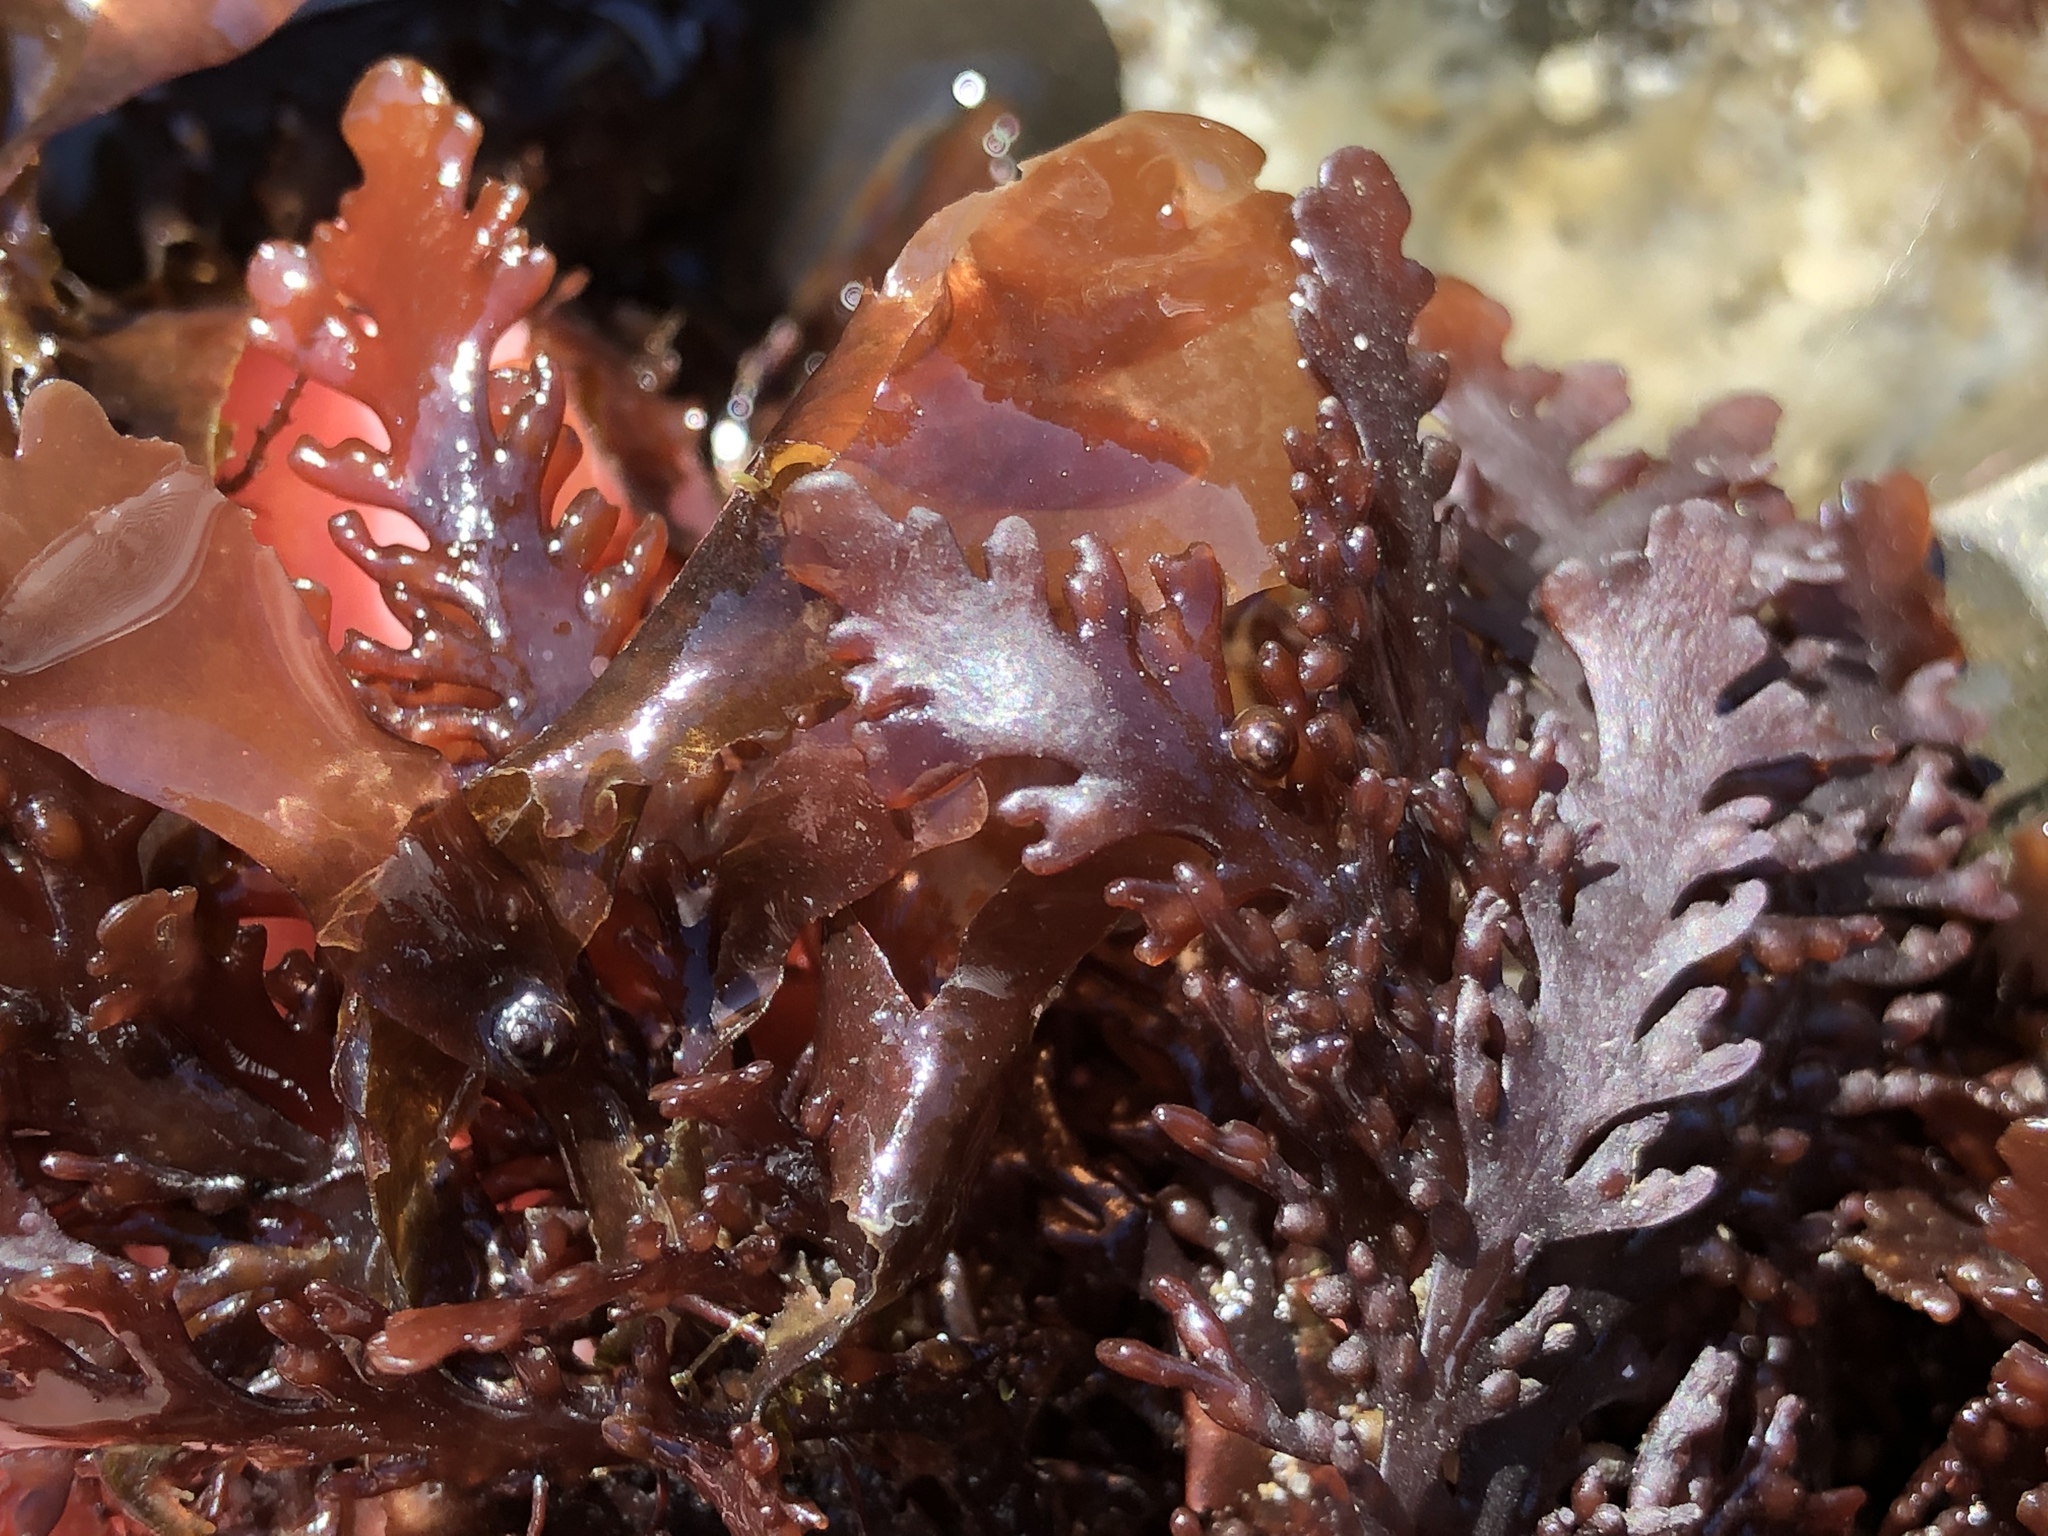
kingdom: Plantae
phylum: Rhodophyta
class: Florideophyceae
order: Ceramiales
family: Rhodomelaceae
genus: Osmundea
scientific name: Osmundea spectabilis
